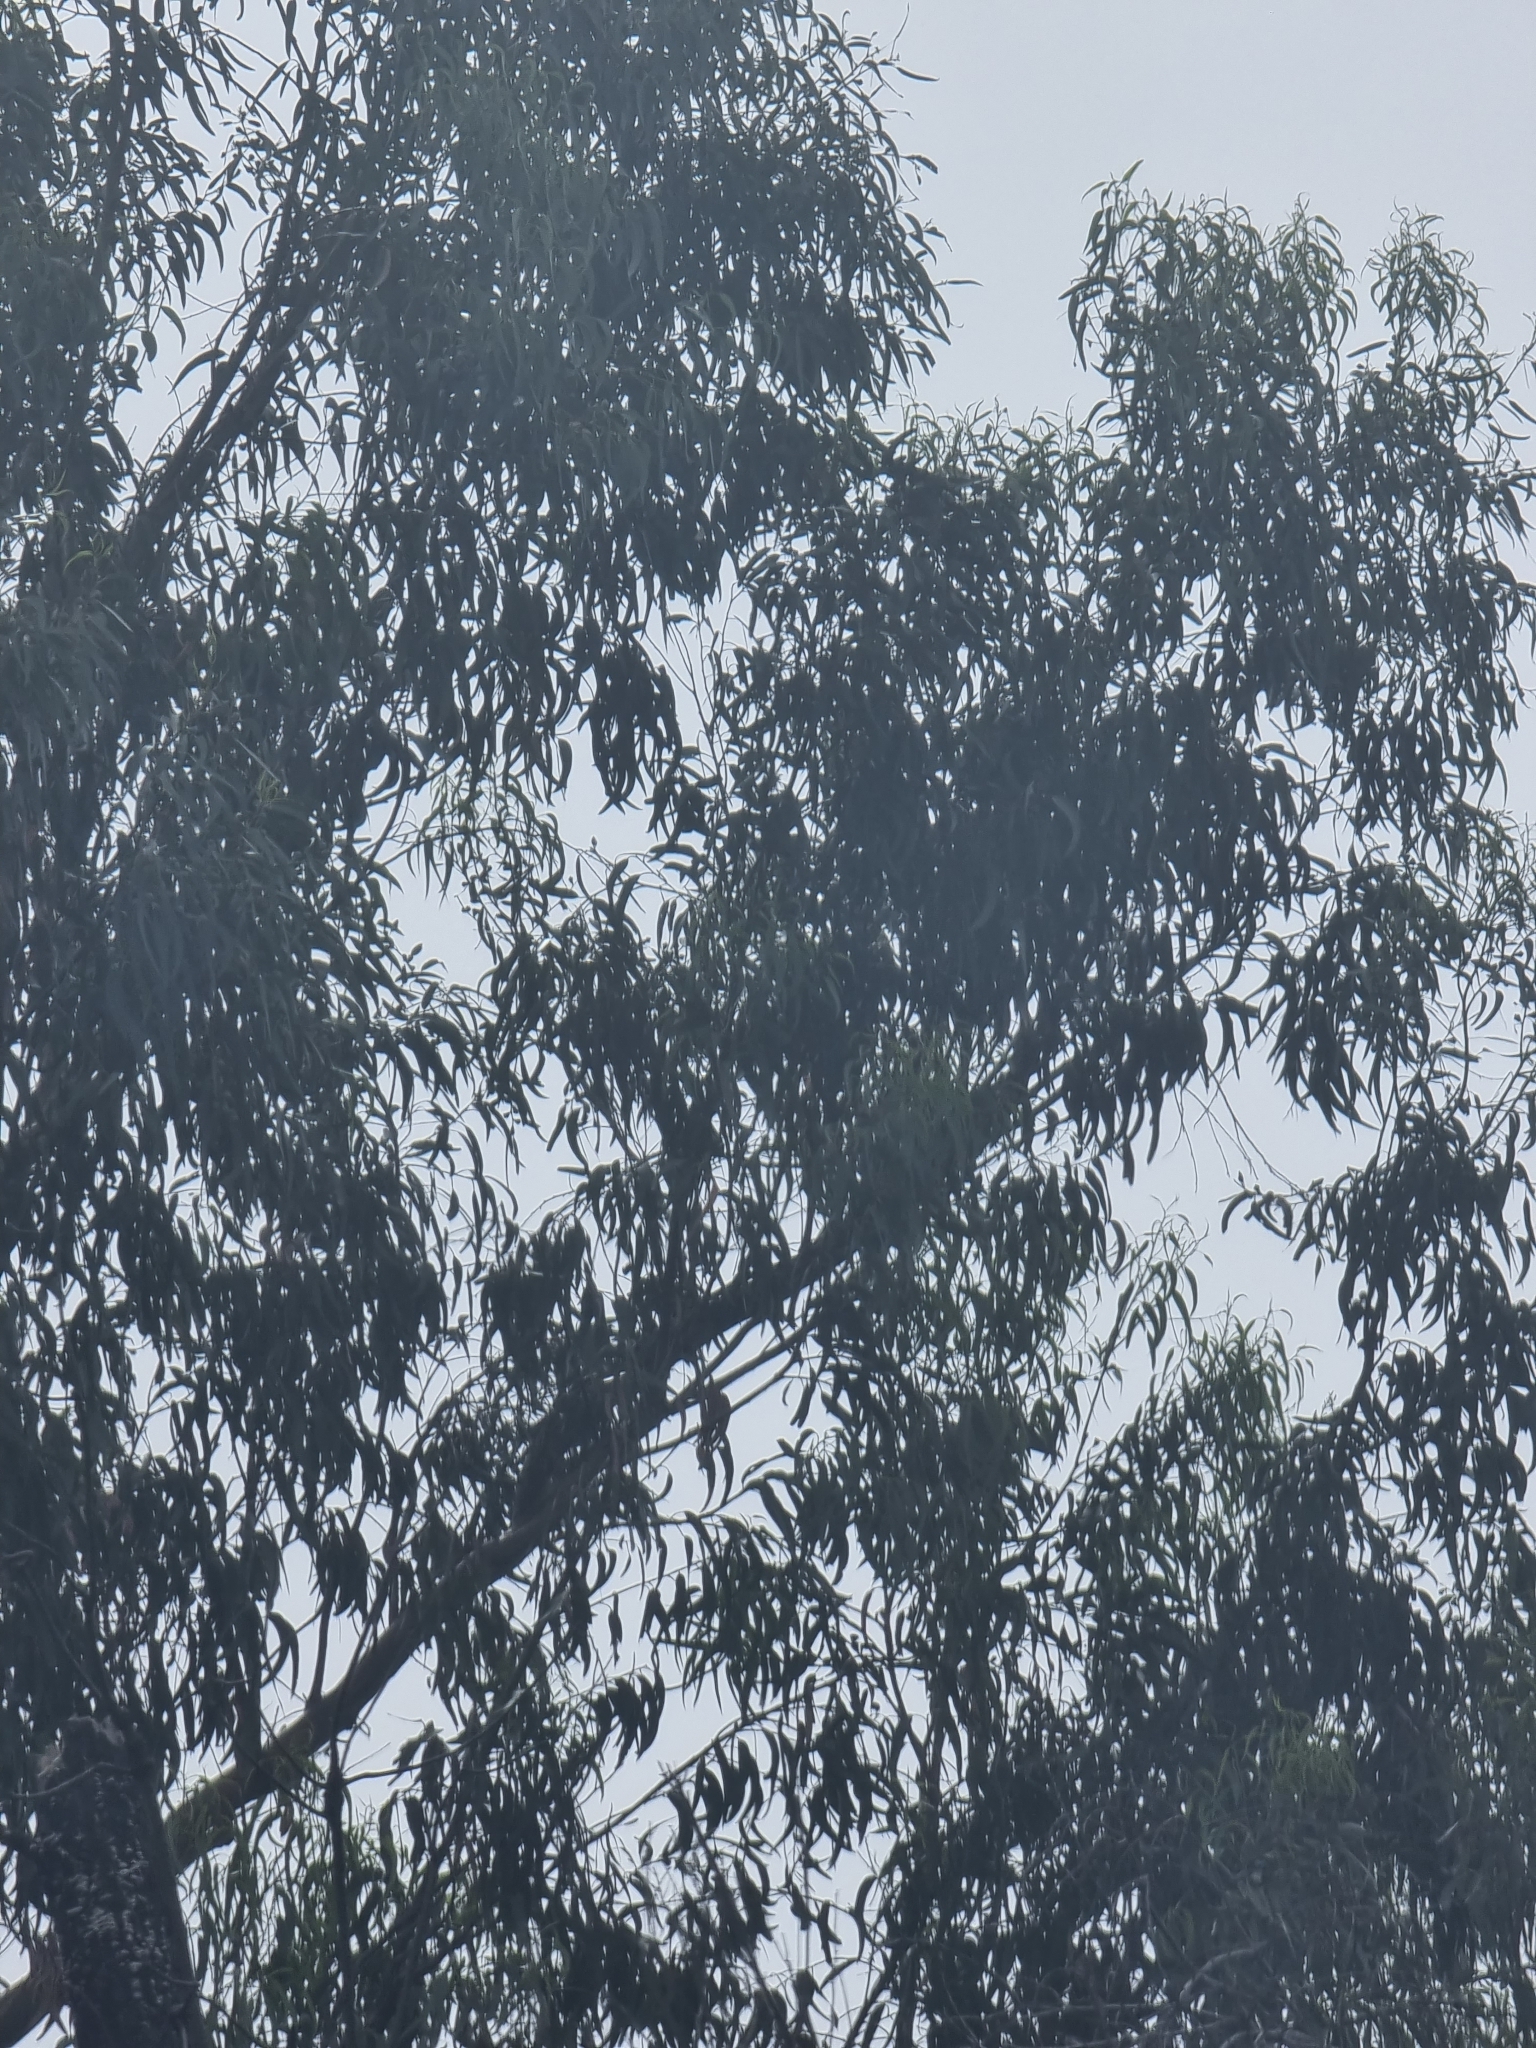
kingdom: Plantae
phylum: Tracheophyta
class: Magnoliopsida
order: Myrtales
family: Myrtaceae
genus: Eucalyptus
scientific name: Eucalyptus globulus
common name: Southern blue-gum
